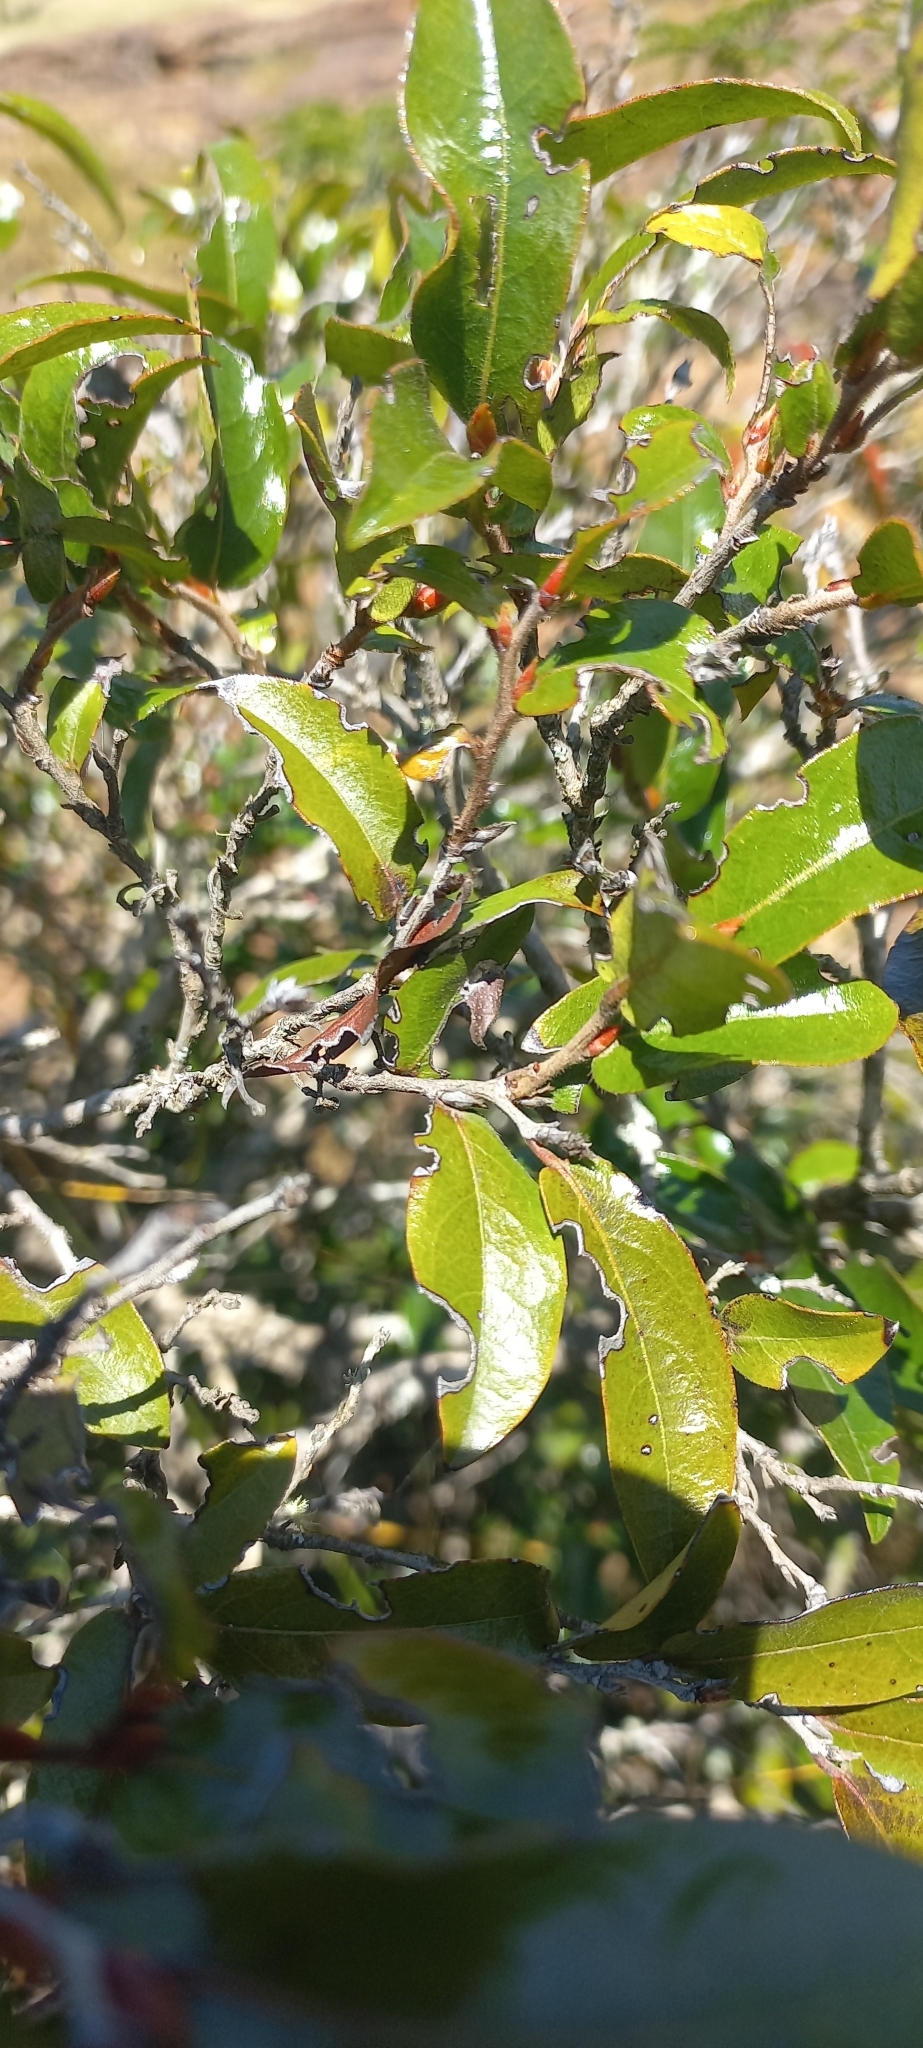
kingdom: Plantae
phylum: Tracheophyta
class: Magnoliopsida
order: Ericales
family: Ebenaceae
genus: Diospyros
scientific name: Diospyros whyteana
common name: Bladder-nut
